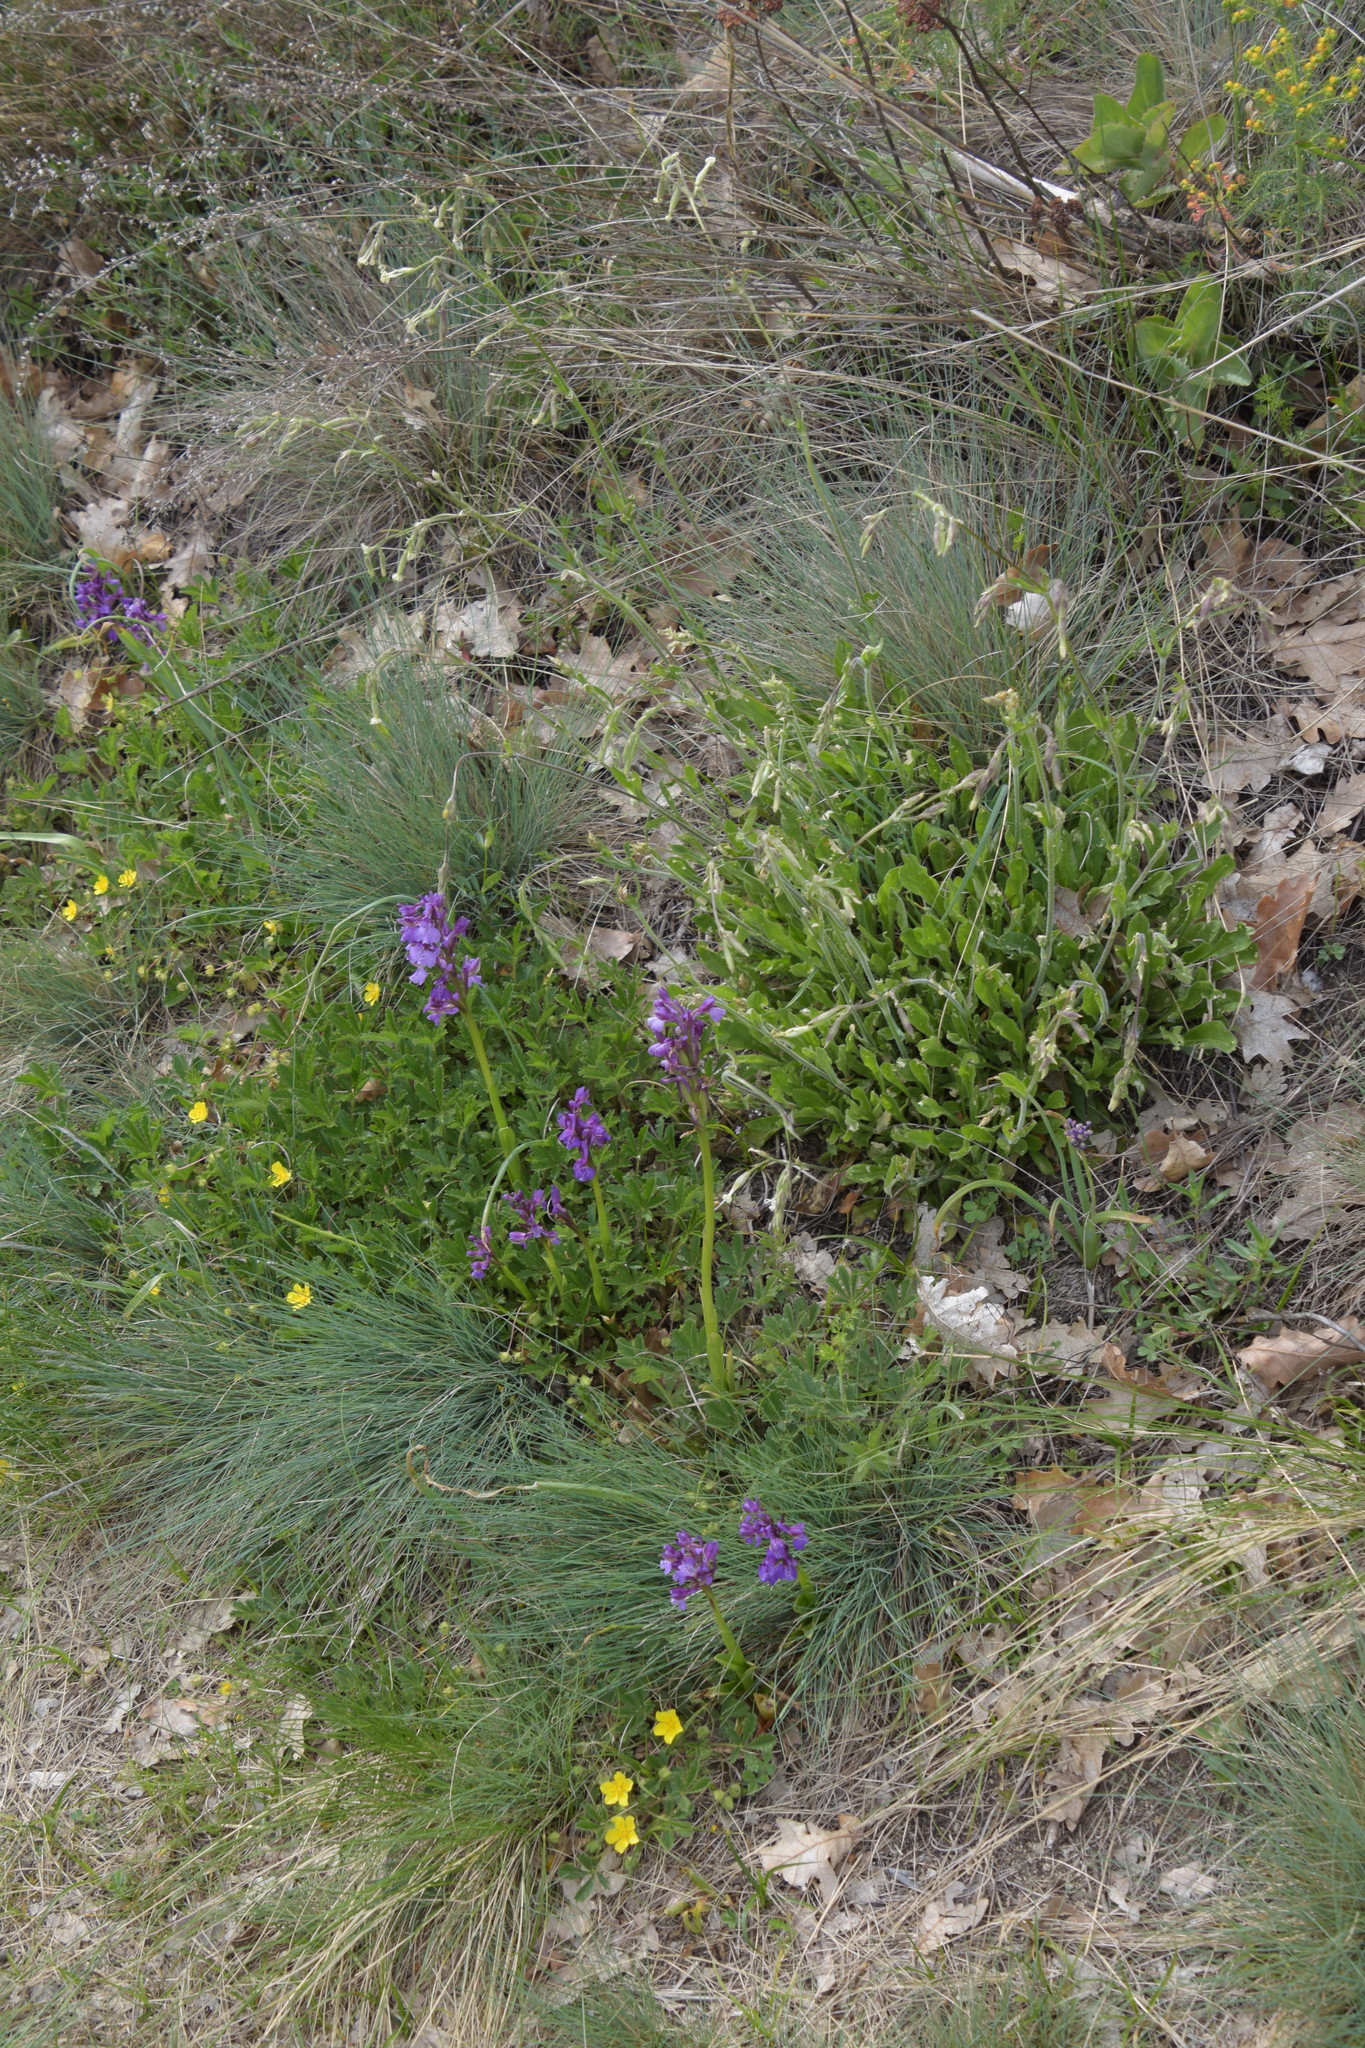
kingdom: Plantae
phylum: Tracheophyta
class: Liliopsida
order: Asparagales
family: Orchidaceae
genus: Anacamptis
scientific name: Anacamptis morio
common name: Green-winged orchid
